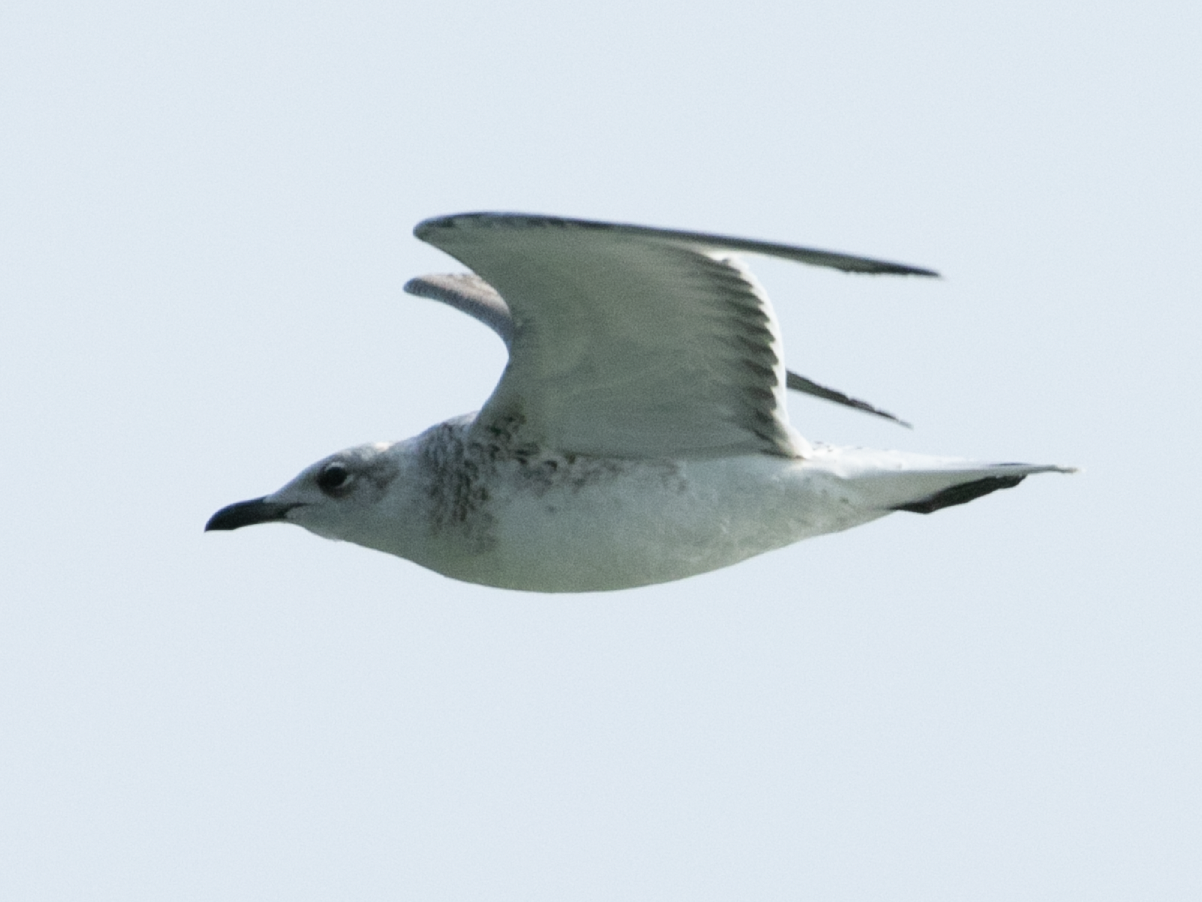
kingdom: Animalia
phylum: Chordata
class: Aves
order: Charadriiformes
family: Laridae
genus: Ichthyaetus
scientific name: Ichthyaetus melanocephalus
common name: Mediterranean gull
